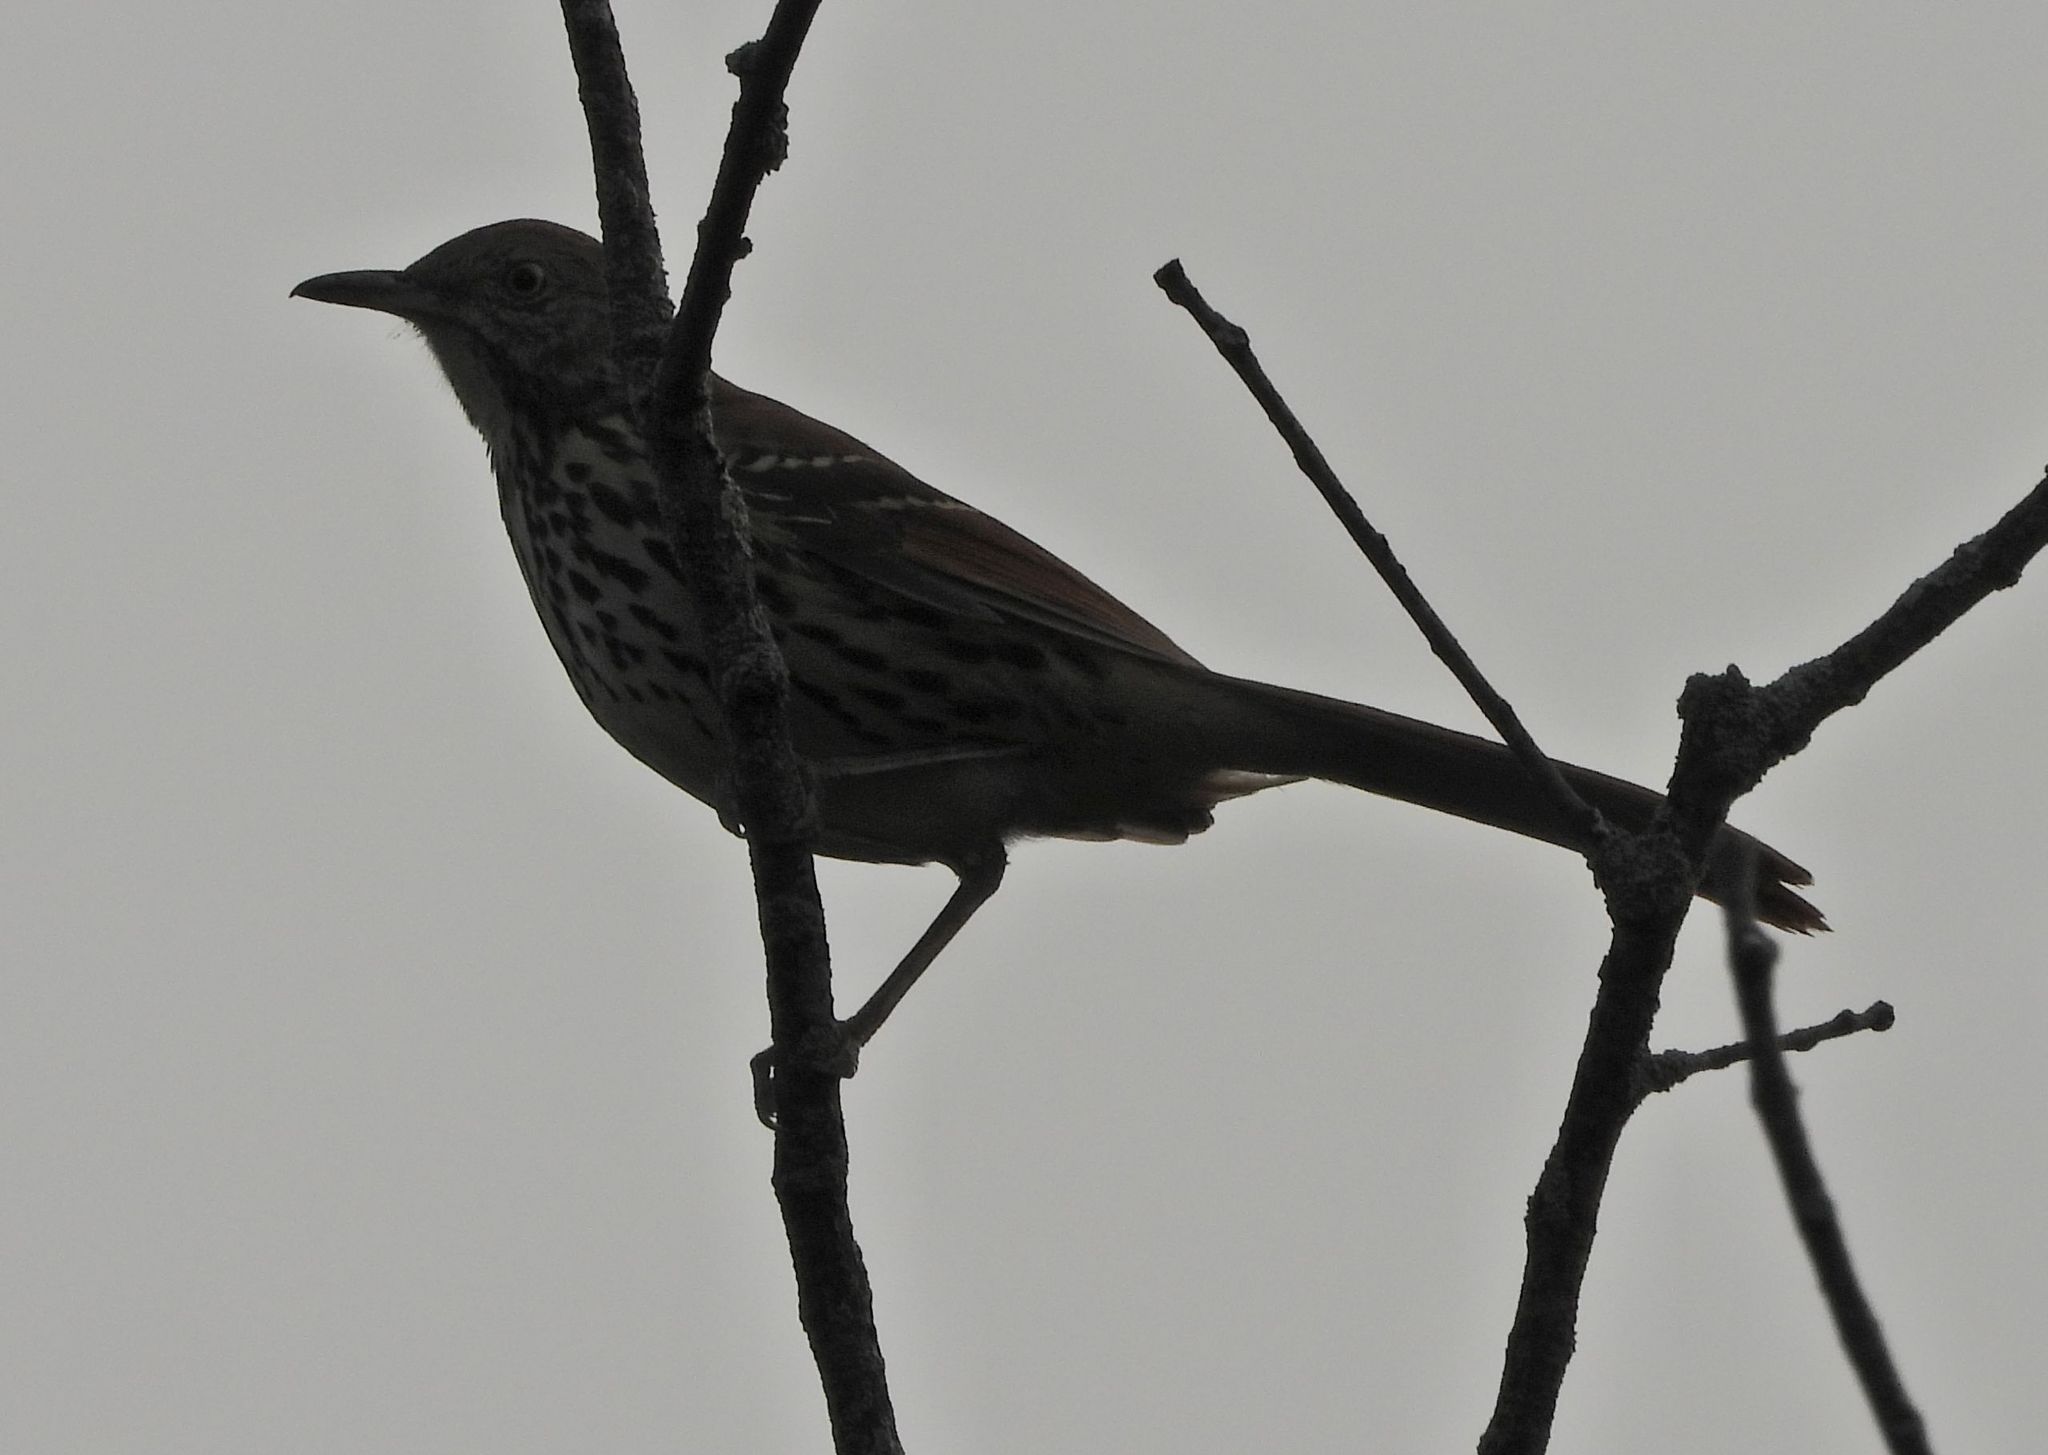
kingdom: Animalia
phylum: Chordata
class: Aves
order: Passeriformes
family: Mimidae
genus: Toxostoma
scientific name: Toxostoma rufum
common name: Brown thrasher
